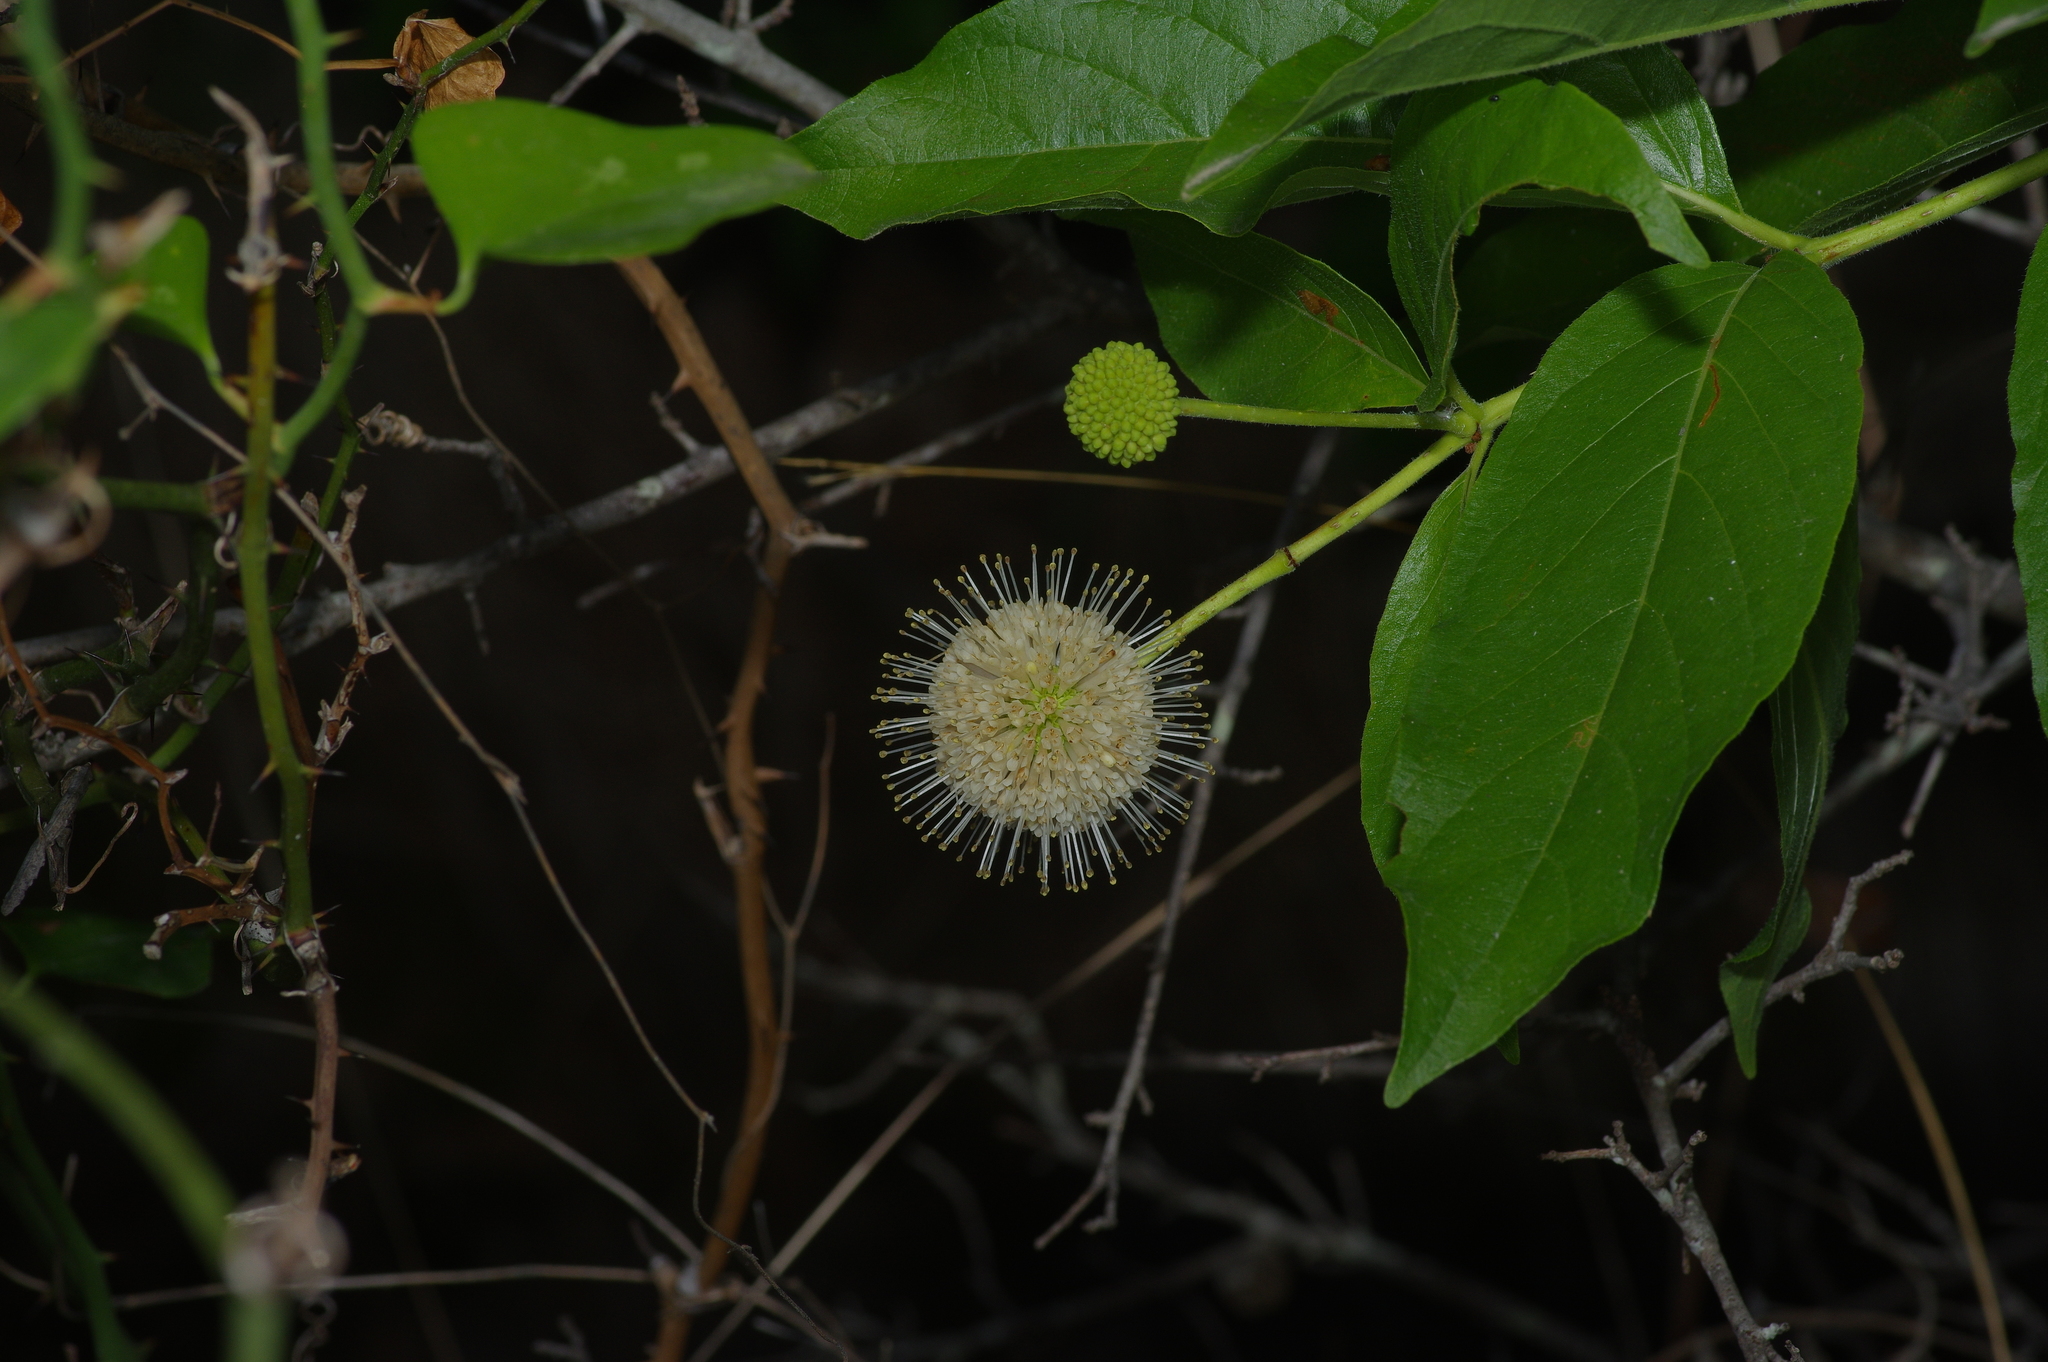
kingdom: Plantae
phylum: Tracheophyta
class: Magnoliopsida
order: Gentianales
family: Rubiaceae
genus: Cephalanthus
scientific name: Cephalanthus occidentalis
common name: Button-willow
